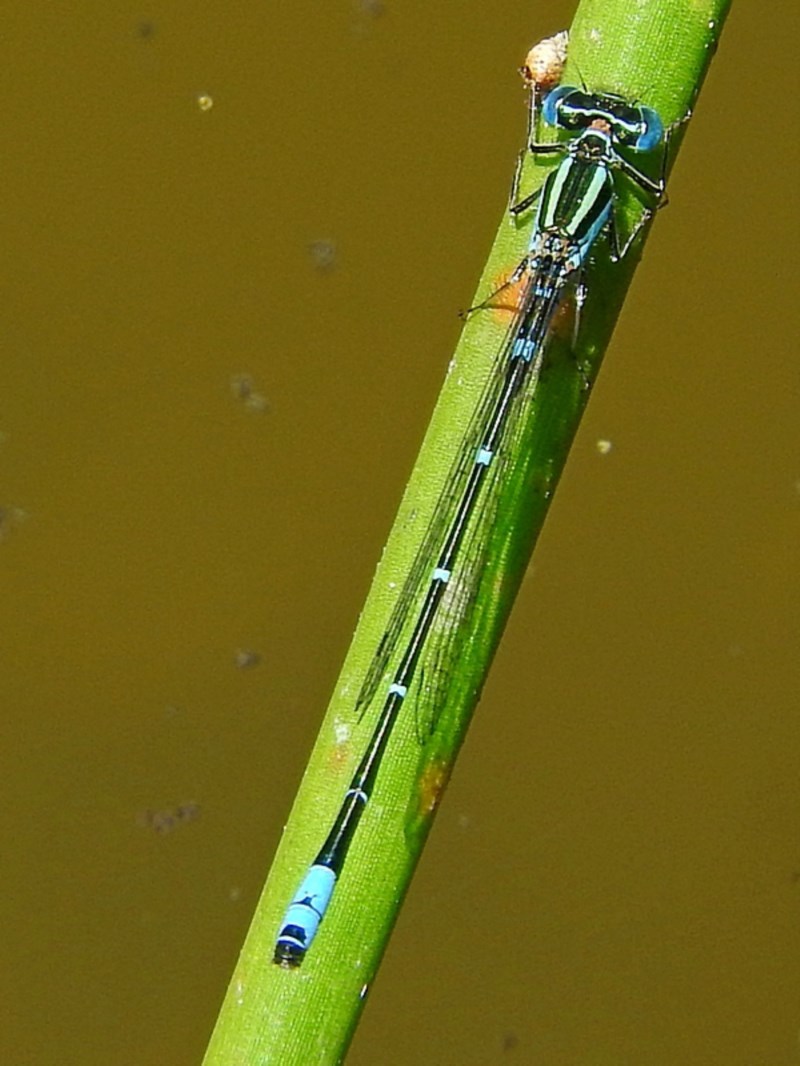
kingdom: Animalia
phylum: Arthropoda
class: Insecta
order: Odonata
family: Coenagrionidae
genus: Austroagrion
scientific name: Austroagrion watsoni
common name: Eastern billabongfly
